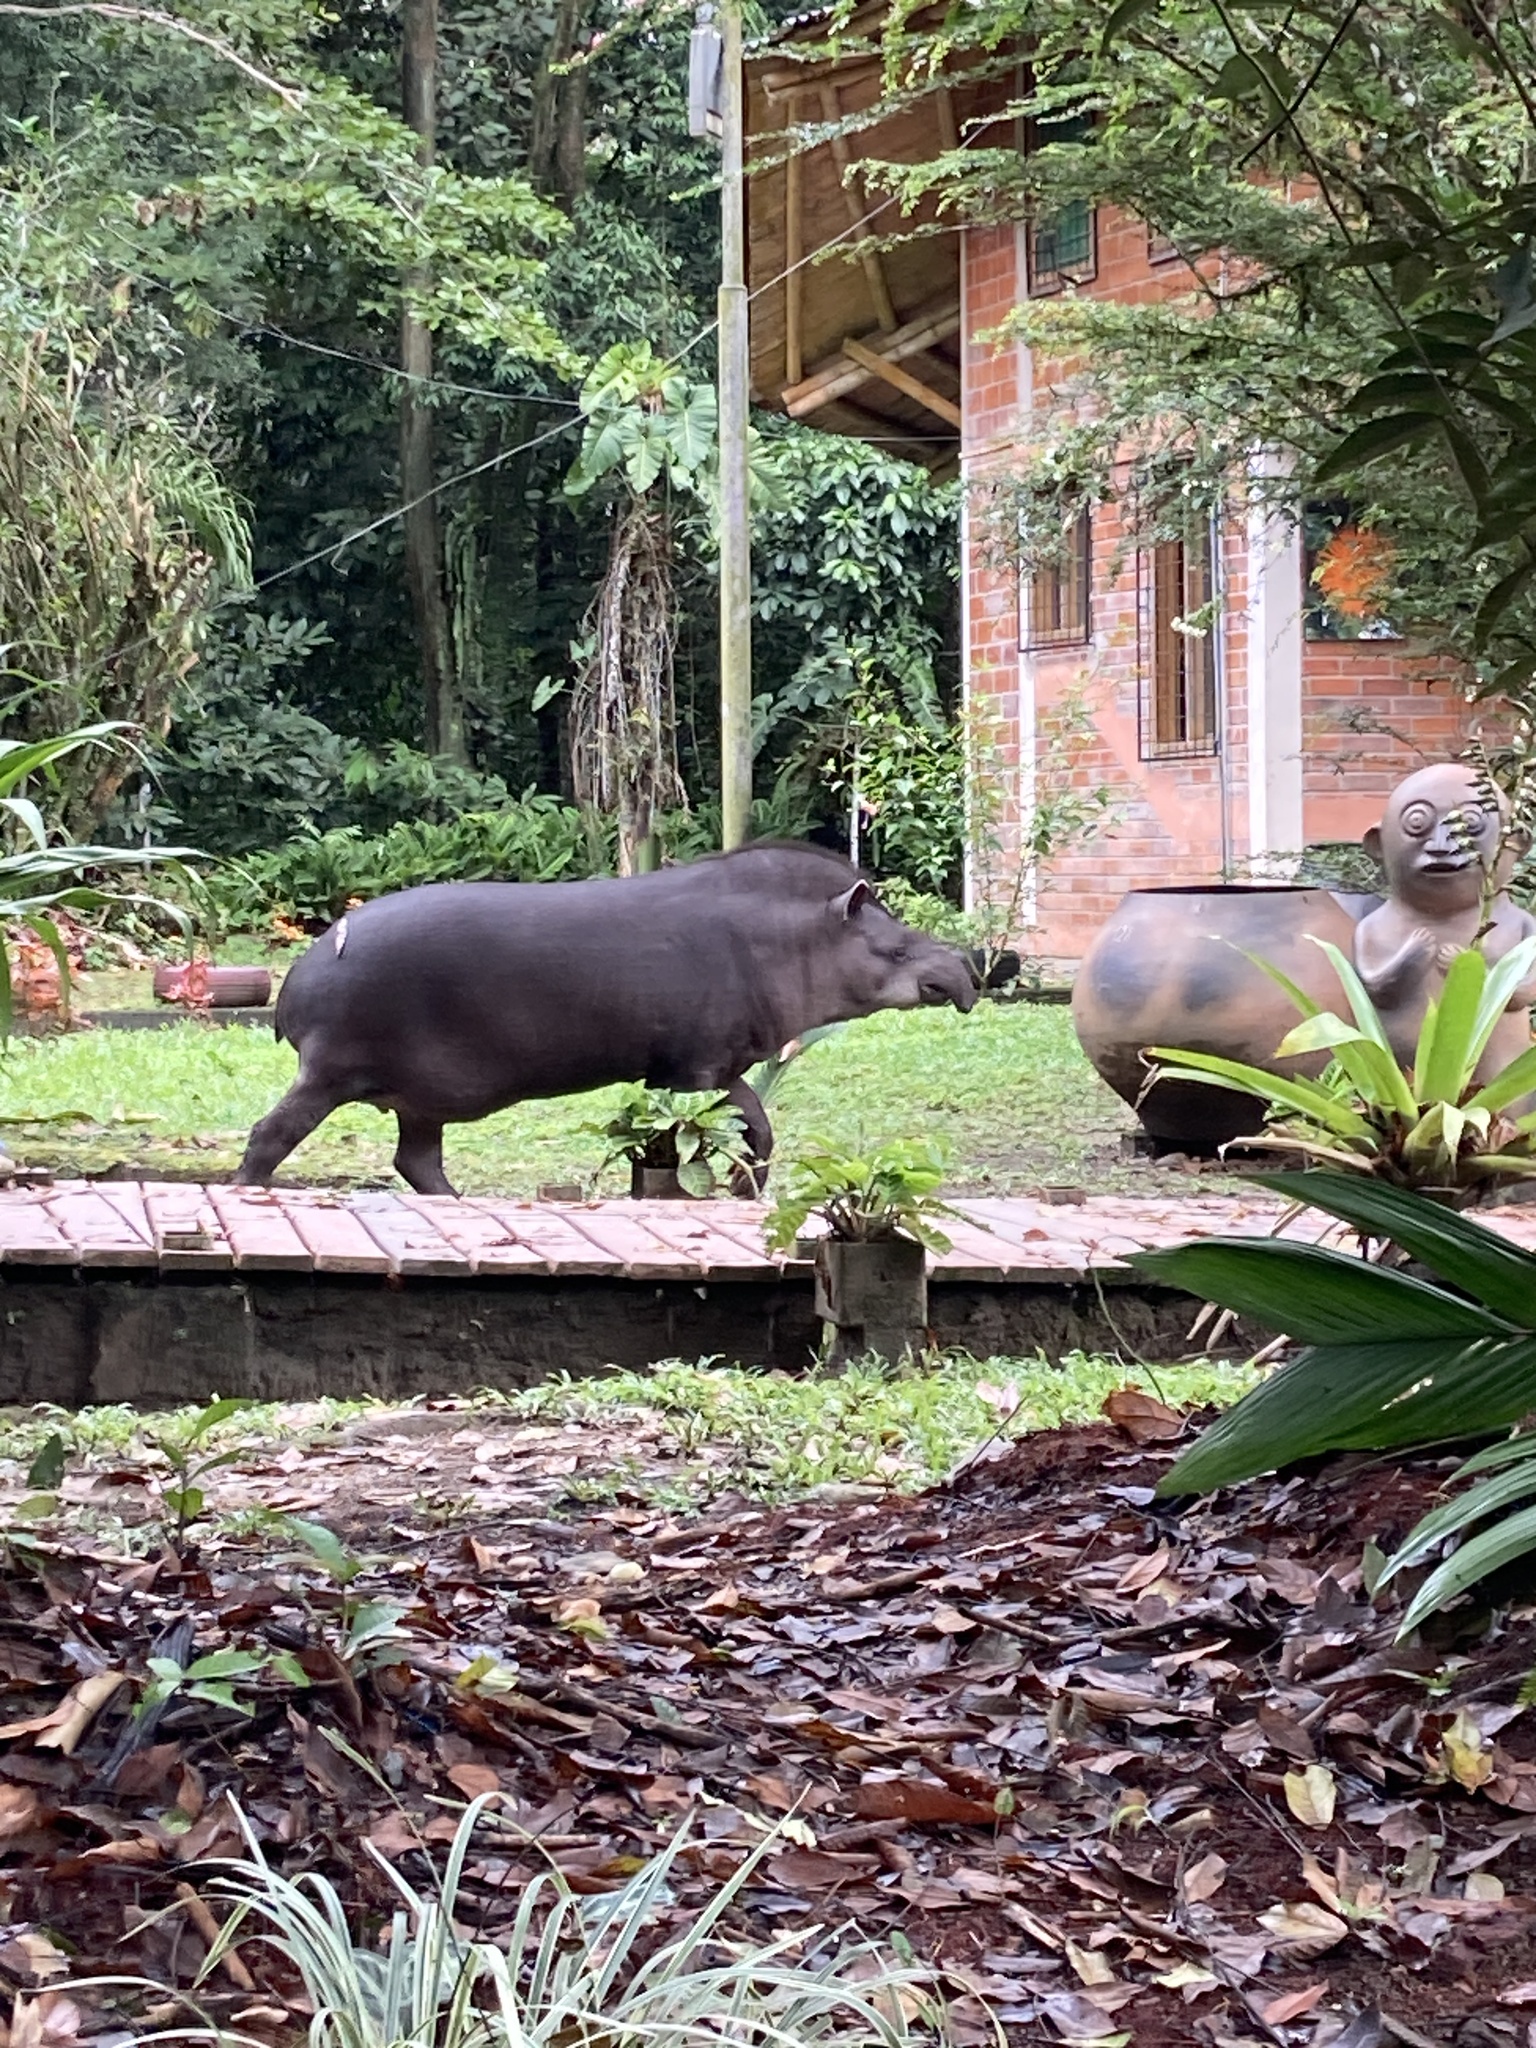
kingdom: Animalia
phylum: Chordata
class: Mammalia
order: Perissodactyla
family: Tapiridae
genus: Tapirus
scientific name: Tapirus terrestris
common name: Brazilian tapir
